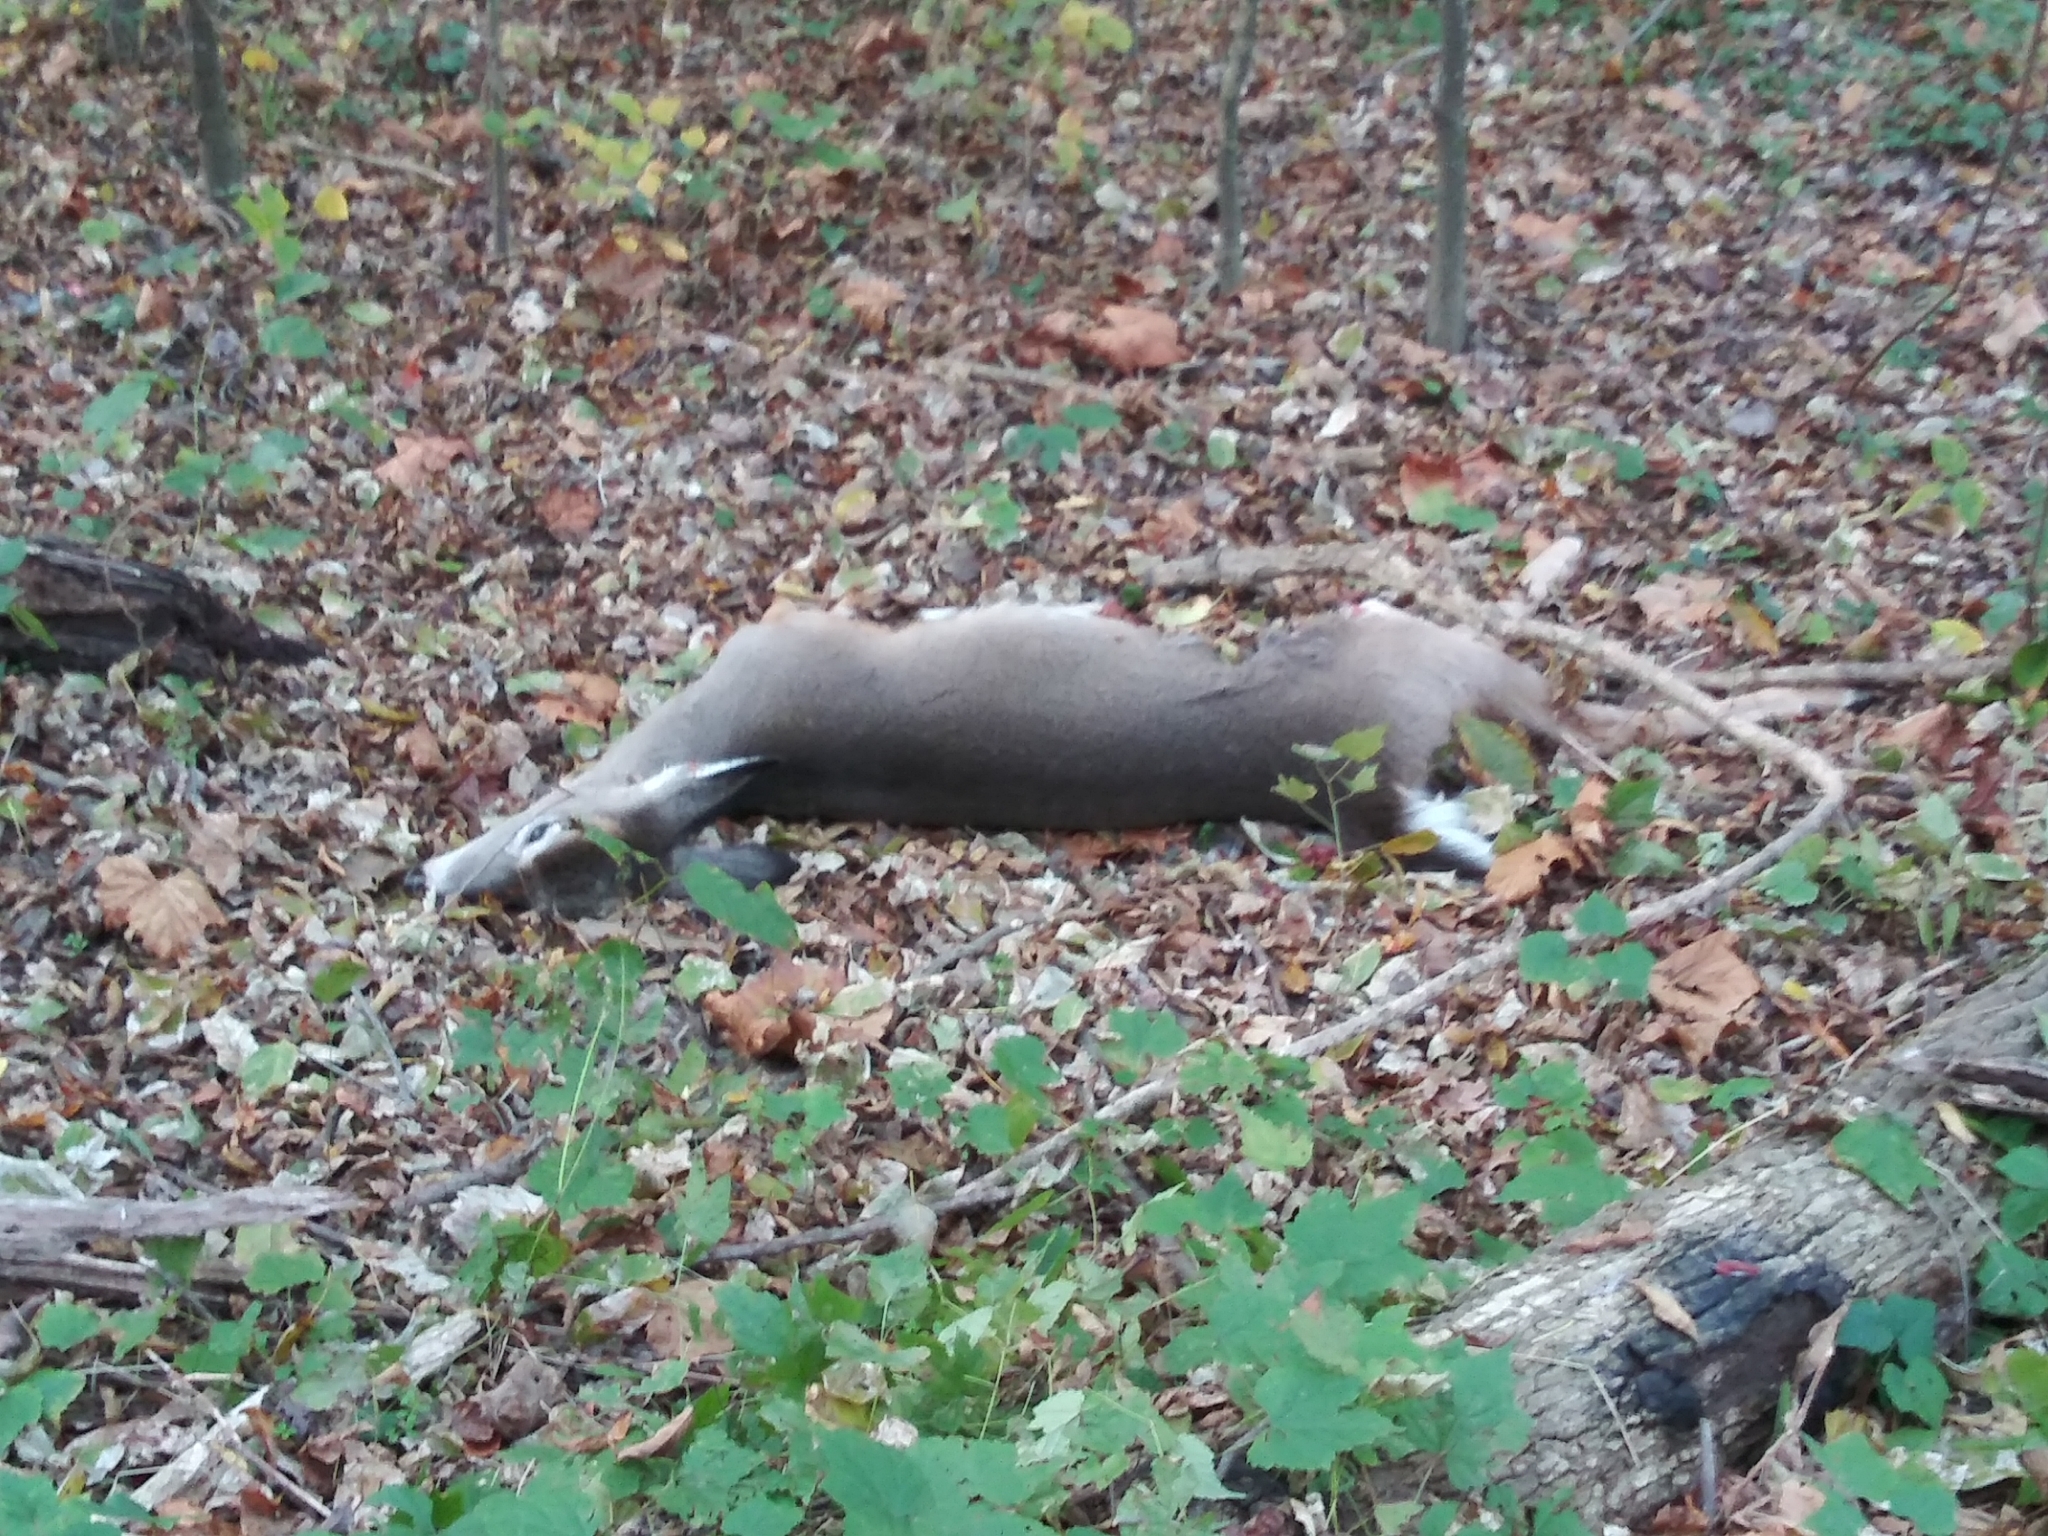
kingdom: Animalia
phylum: Chordata
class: Mammalia
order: Artiodactyla
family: Cervidae
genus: Odocoileus
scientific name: Odocoileus virginianus
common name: White-tailed deer
